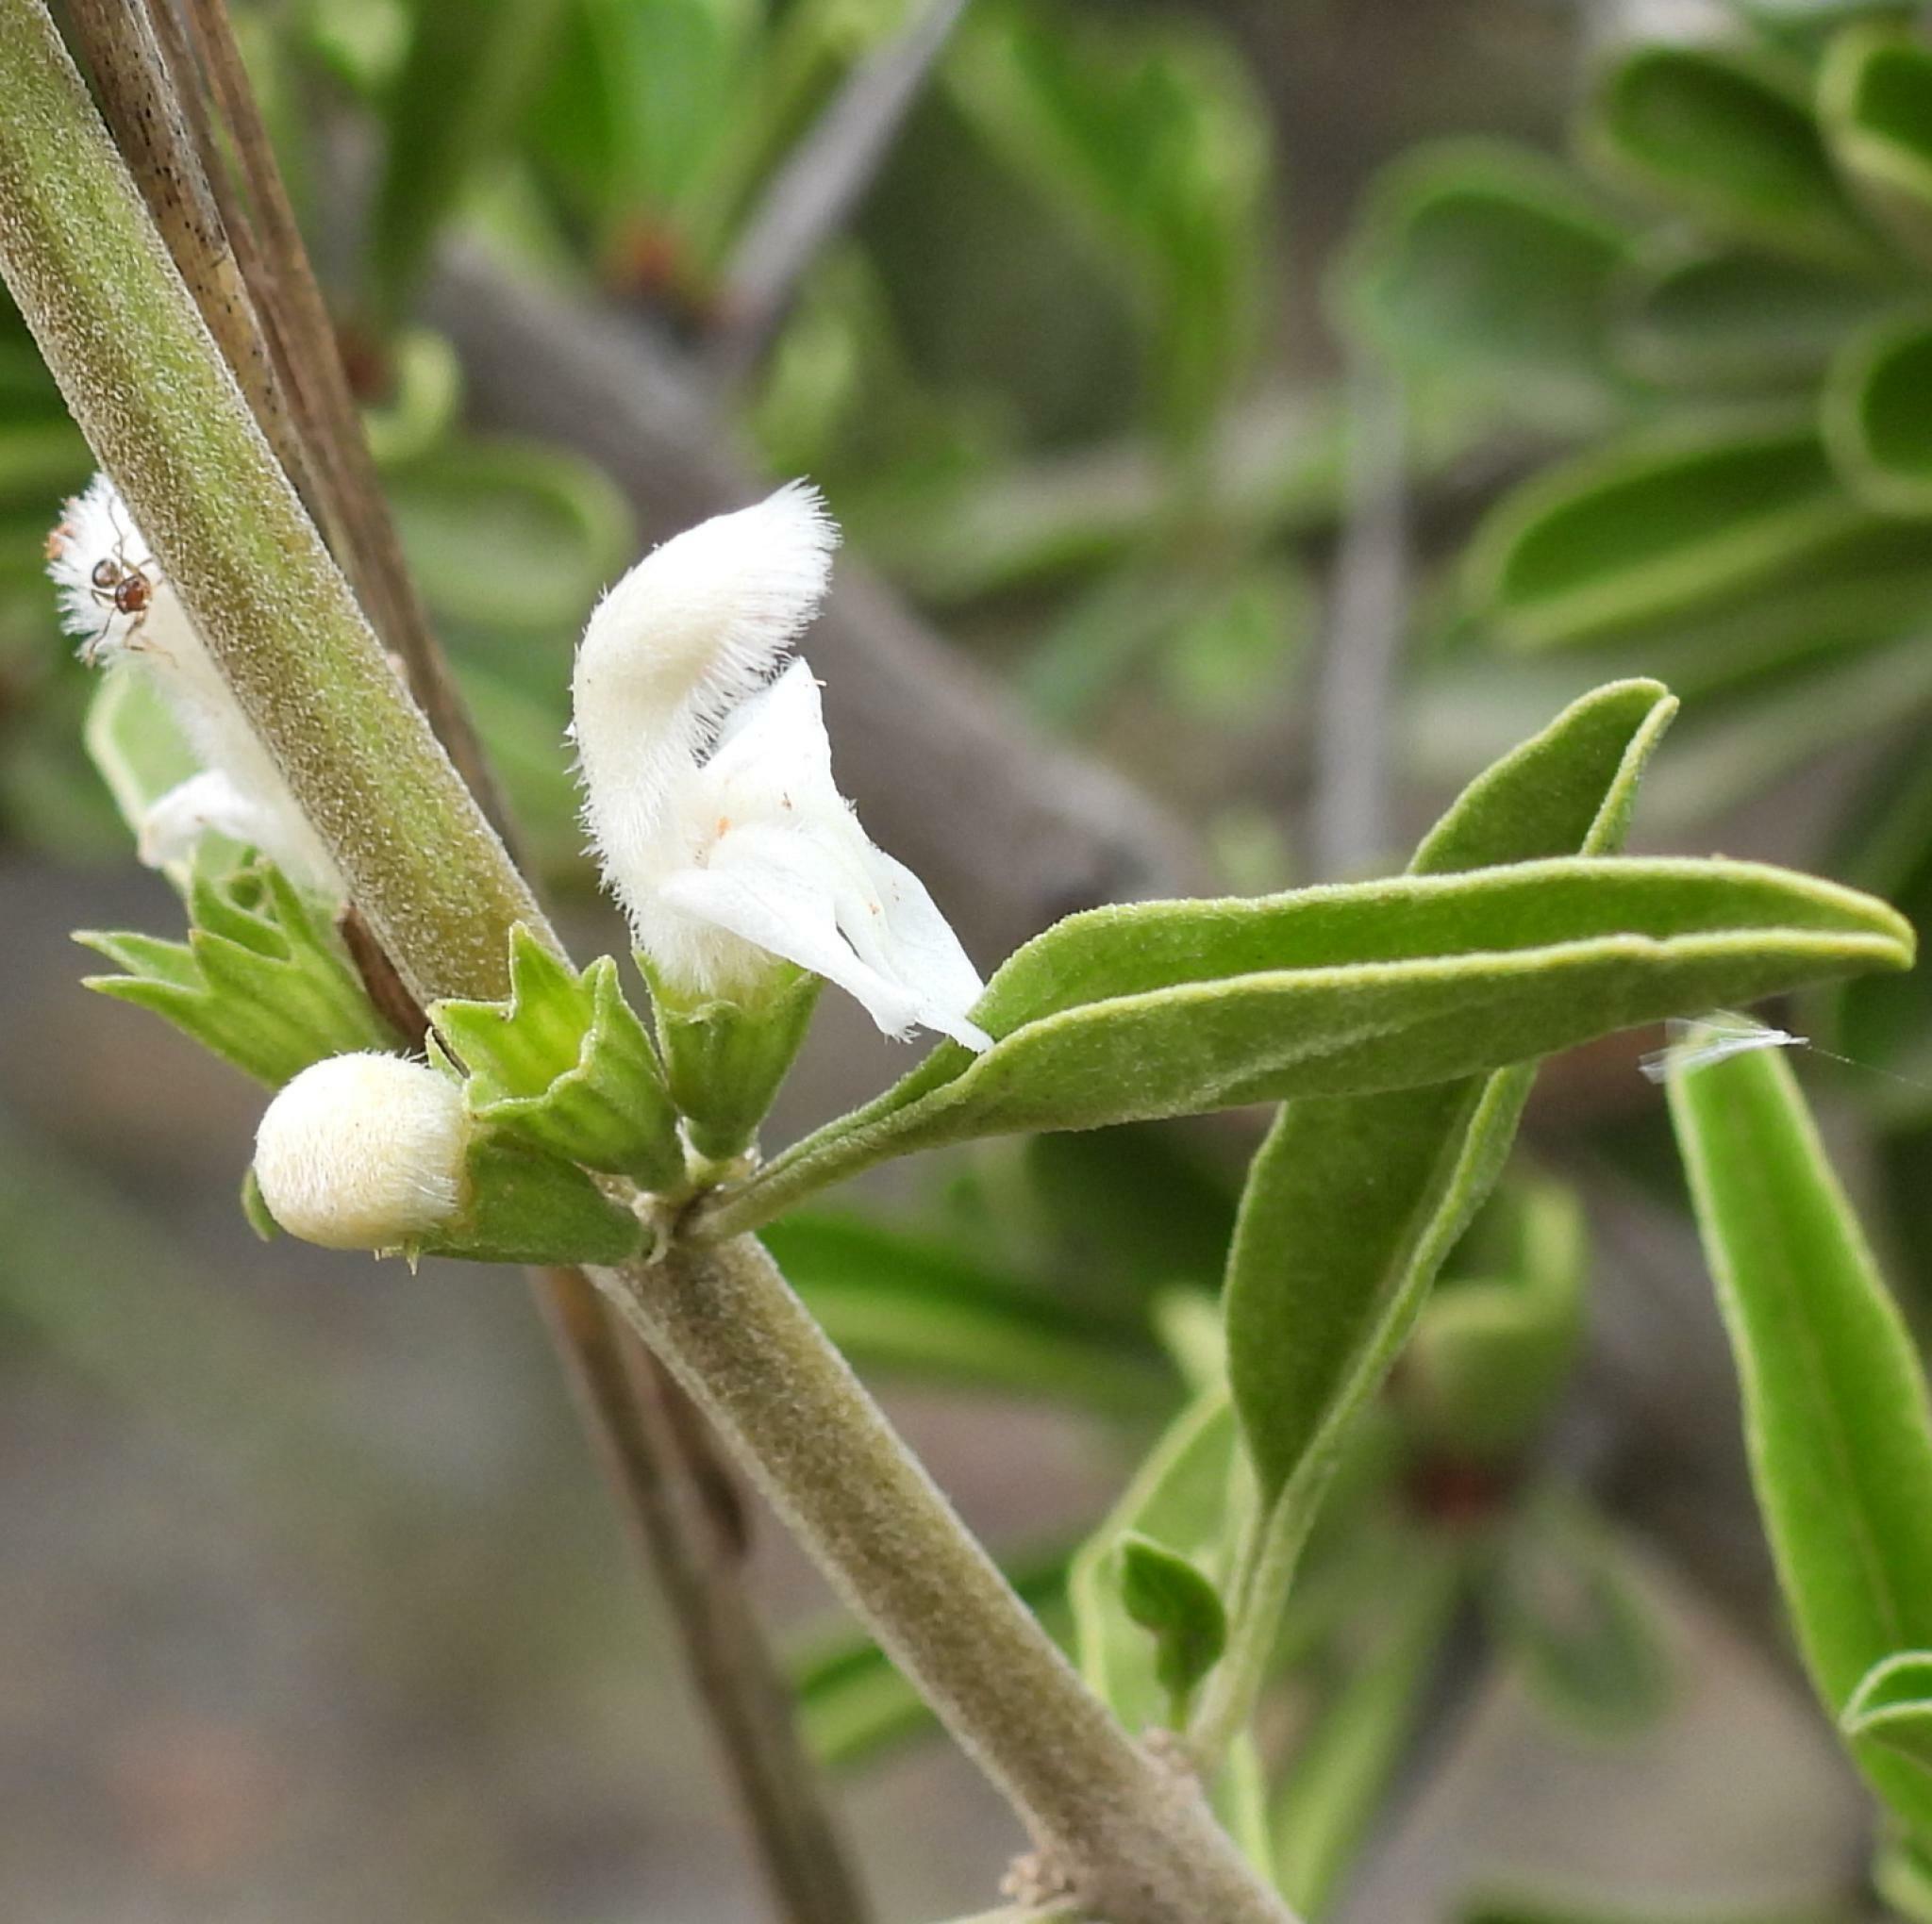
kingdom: Plantae
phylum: Tracheophyta
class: Magnoliopsida
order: Lamiales
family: Lamiaceae
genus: Leucas
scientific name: Leucas capensis
